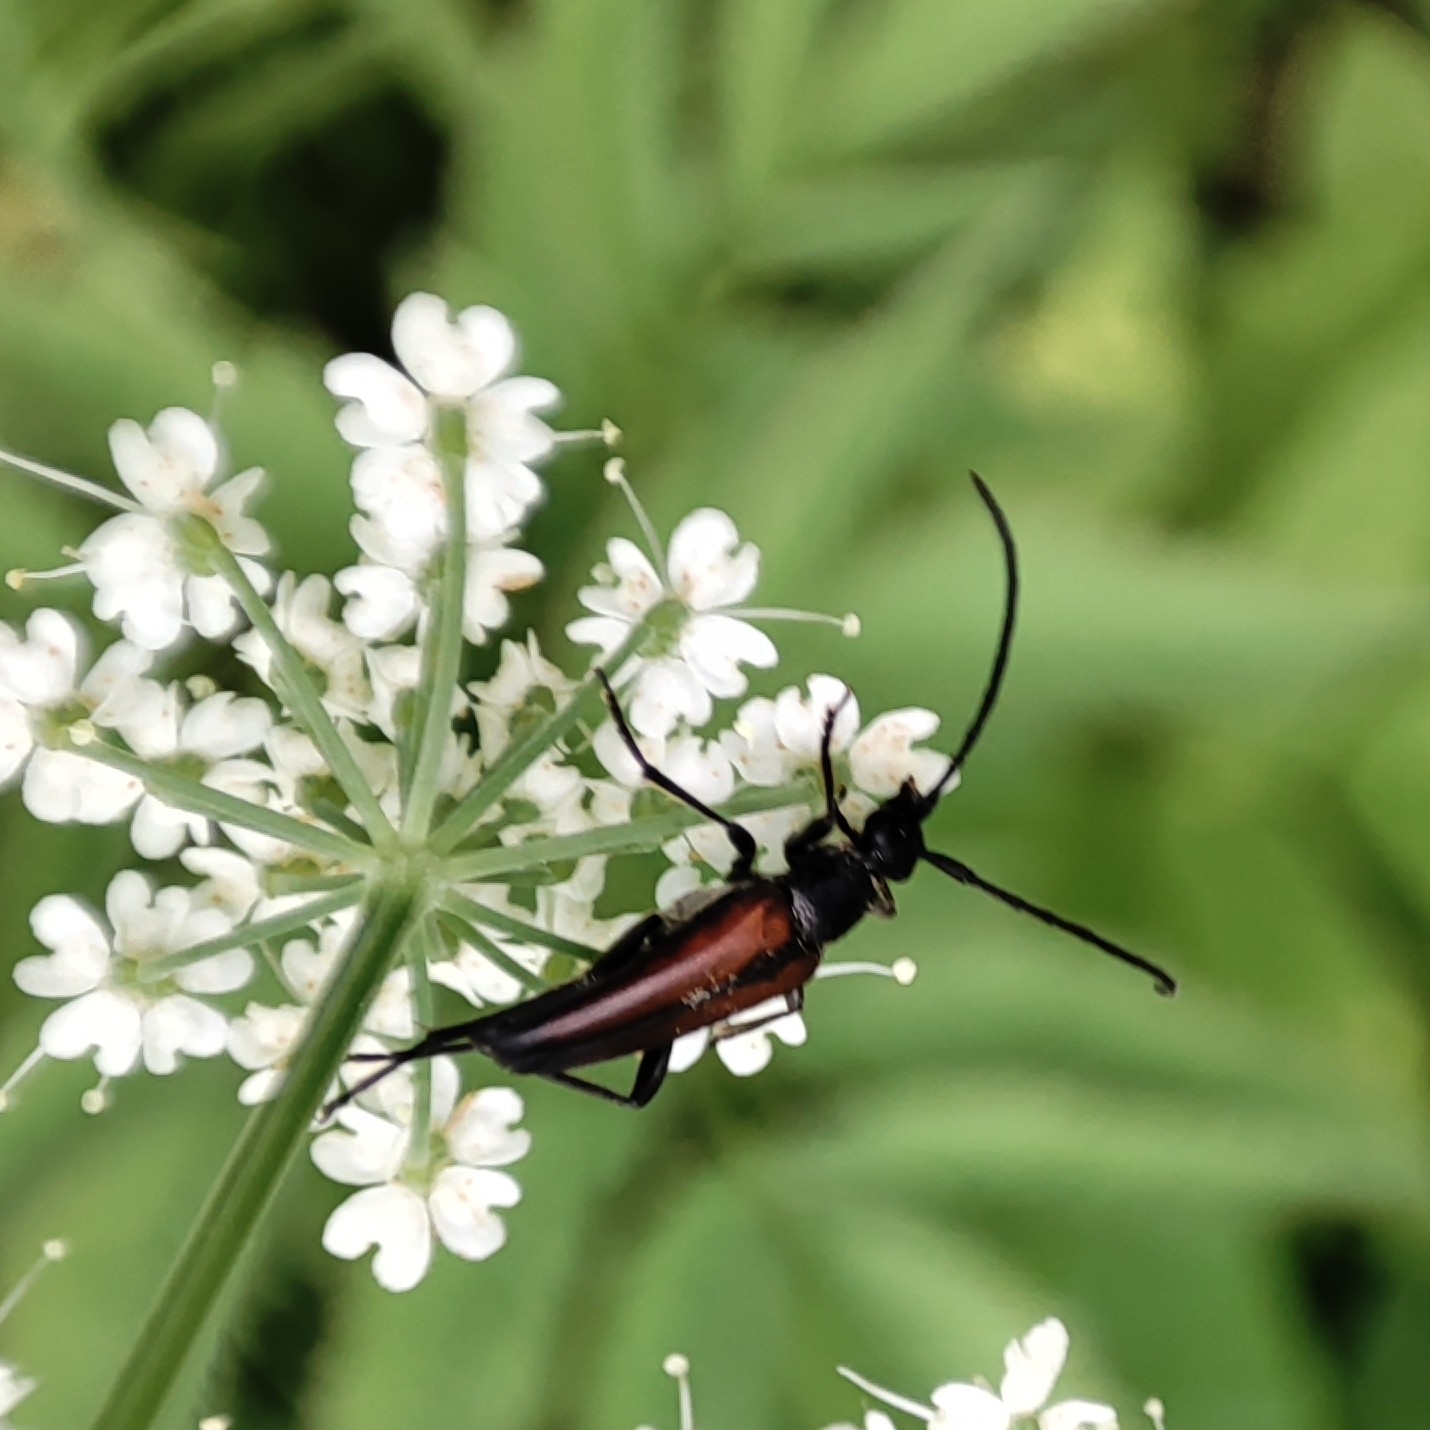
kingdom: Animalia
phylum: Arthropoda
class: Insecta
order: Coleoptera
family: Cerambycidae
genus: Stenurella
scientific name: Stenurella melanura
